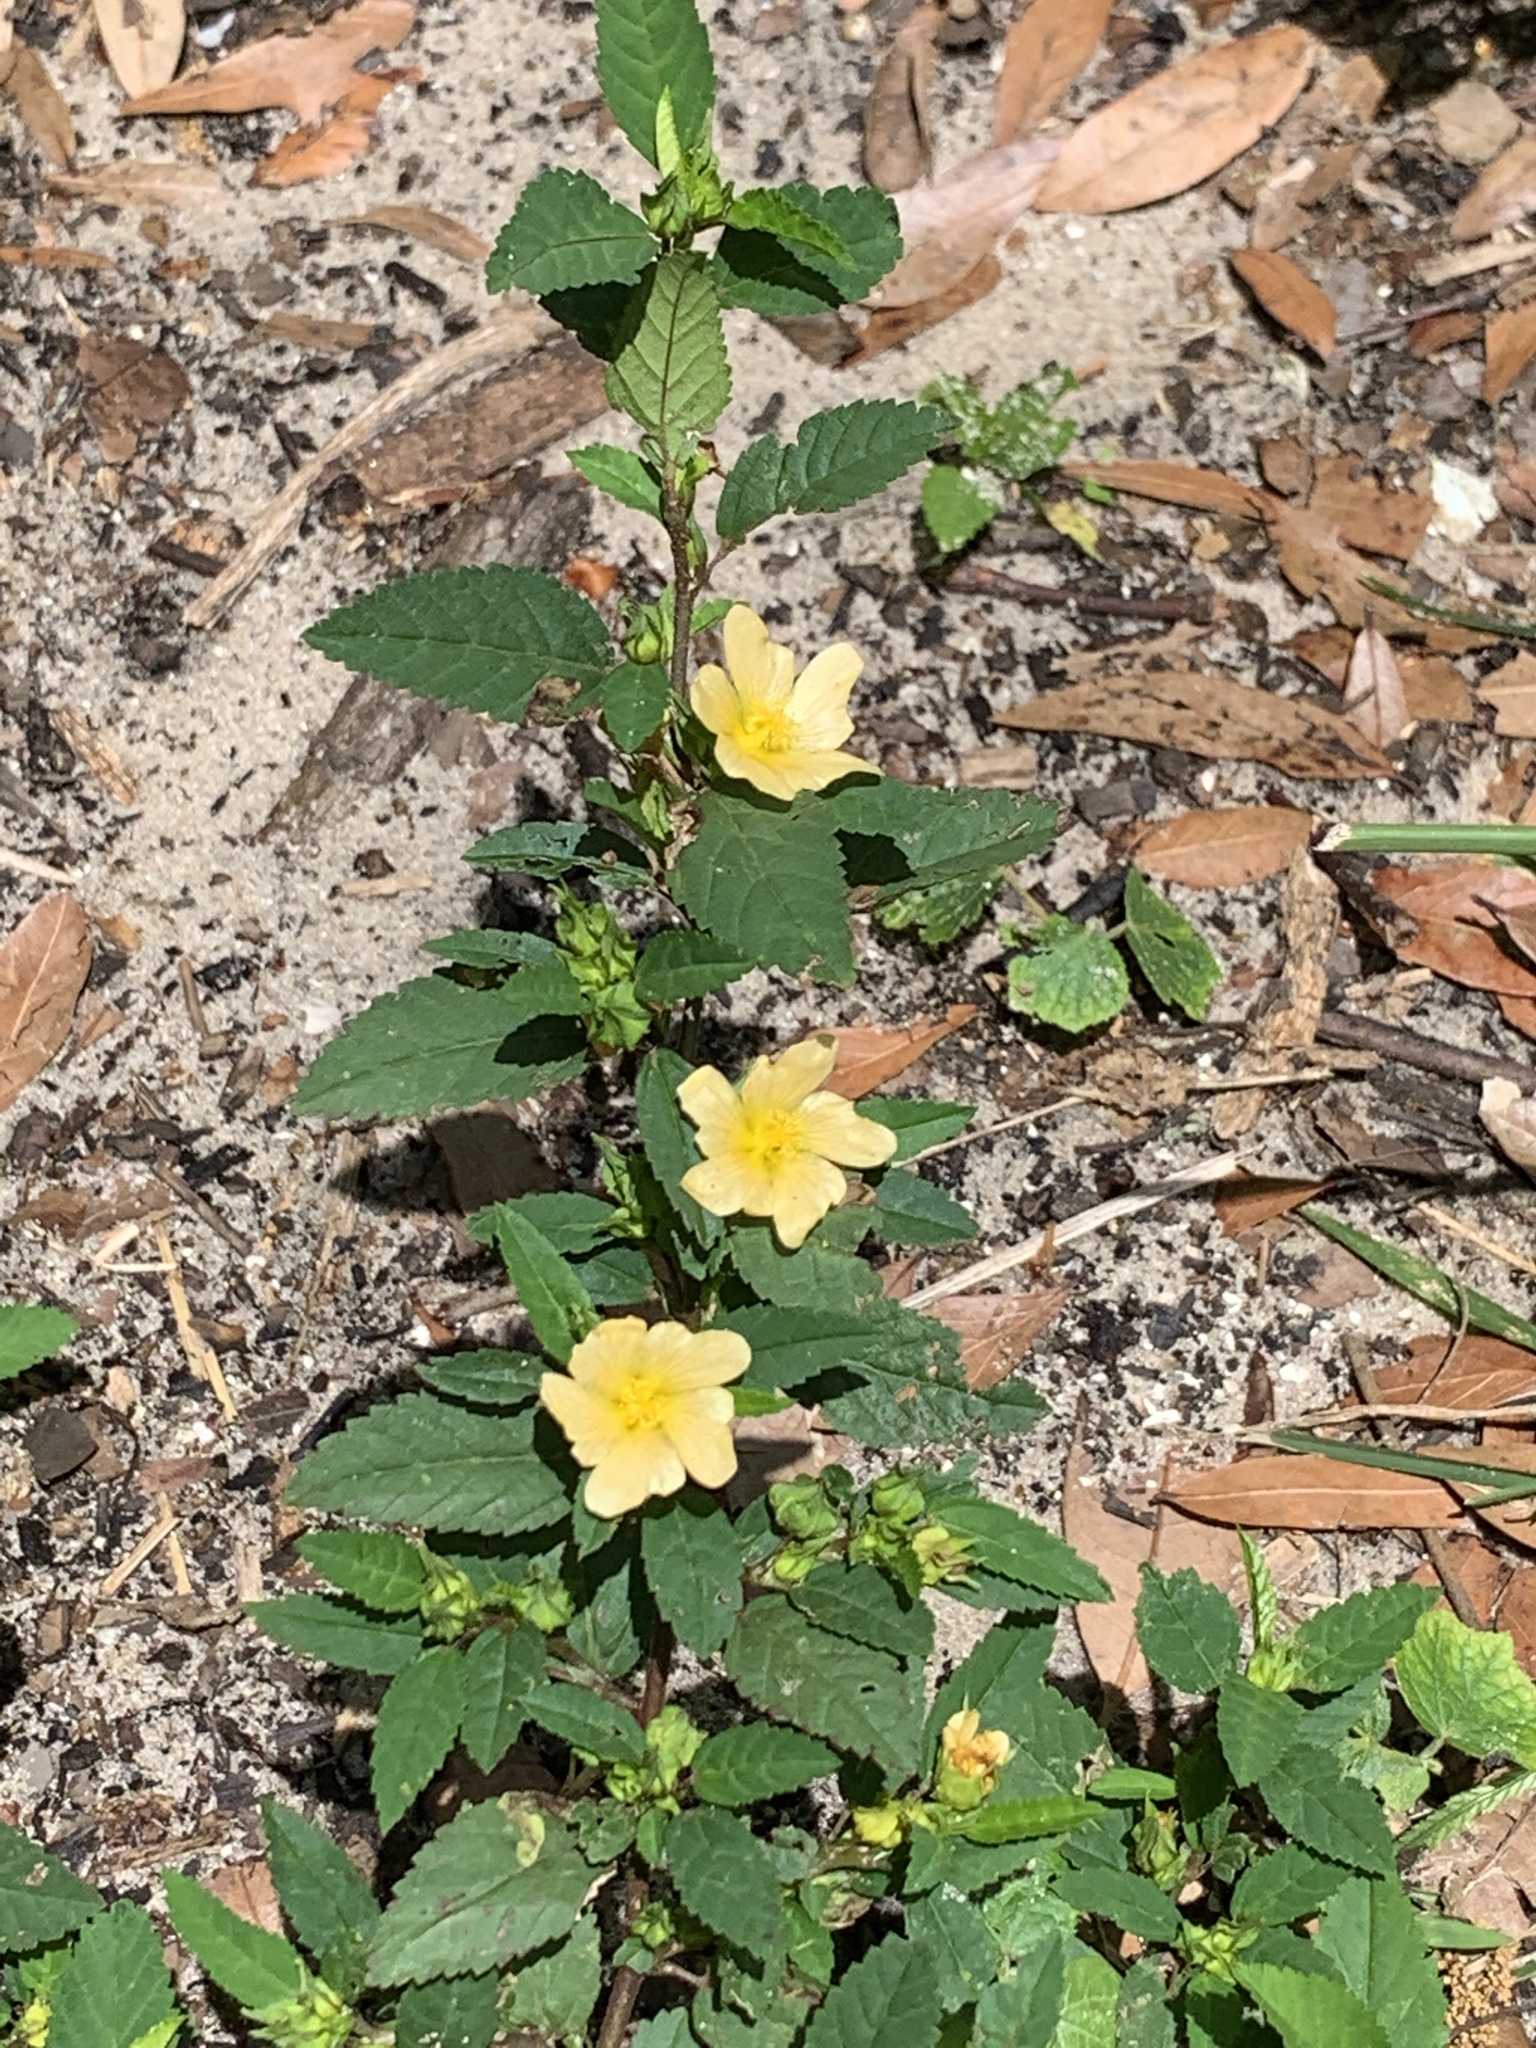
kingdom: Plantae
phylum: Tracheophyta
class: Magnoliopsida
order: Malvales
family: Malvaceae
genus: Sida
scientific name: Sida ulmifolia
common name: Broom weed
